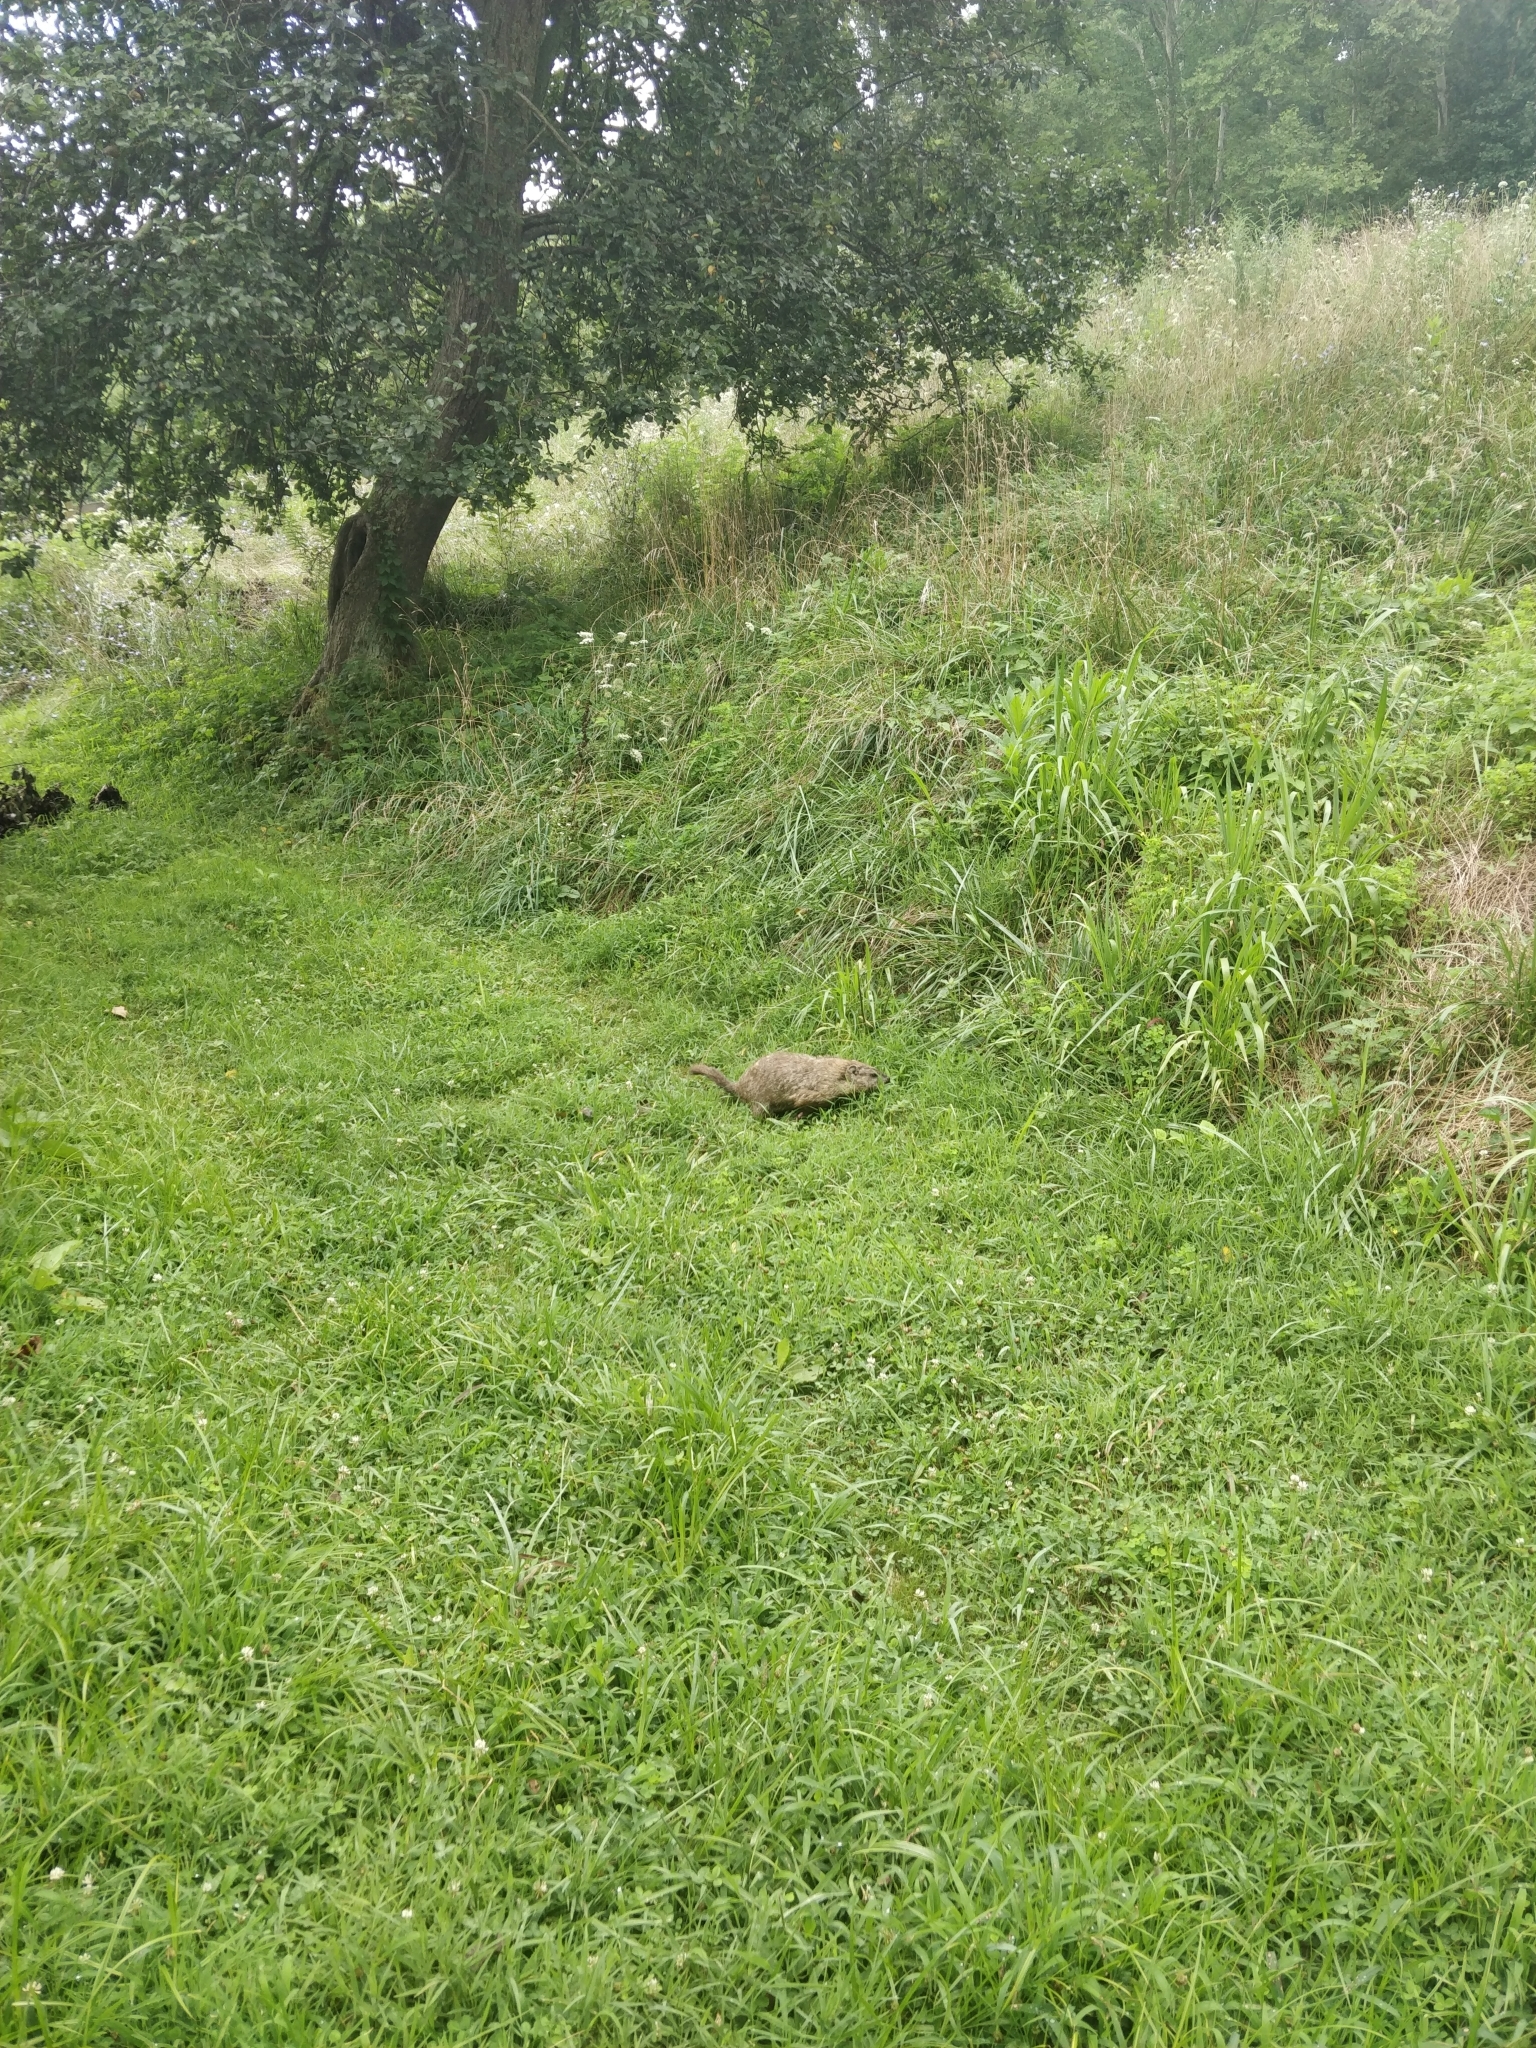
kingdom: Animalia
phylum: Chordata
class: Mammalia
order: Rodentia
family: Sciuridae
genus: Marmota
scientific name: Marmota monax
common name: Groundhog
